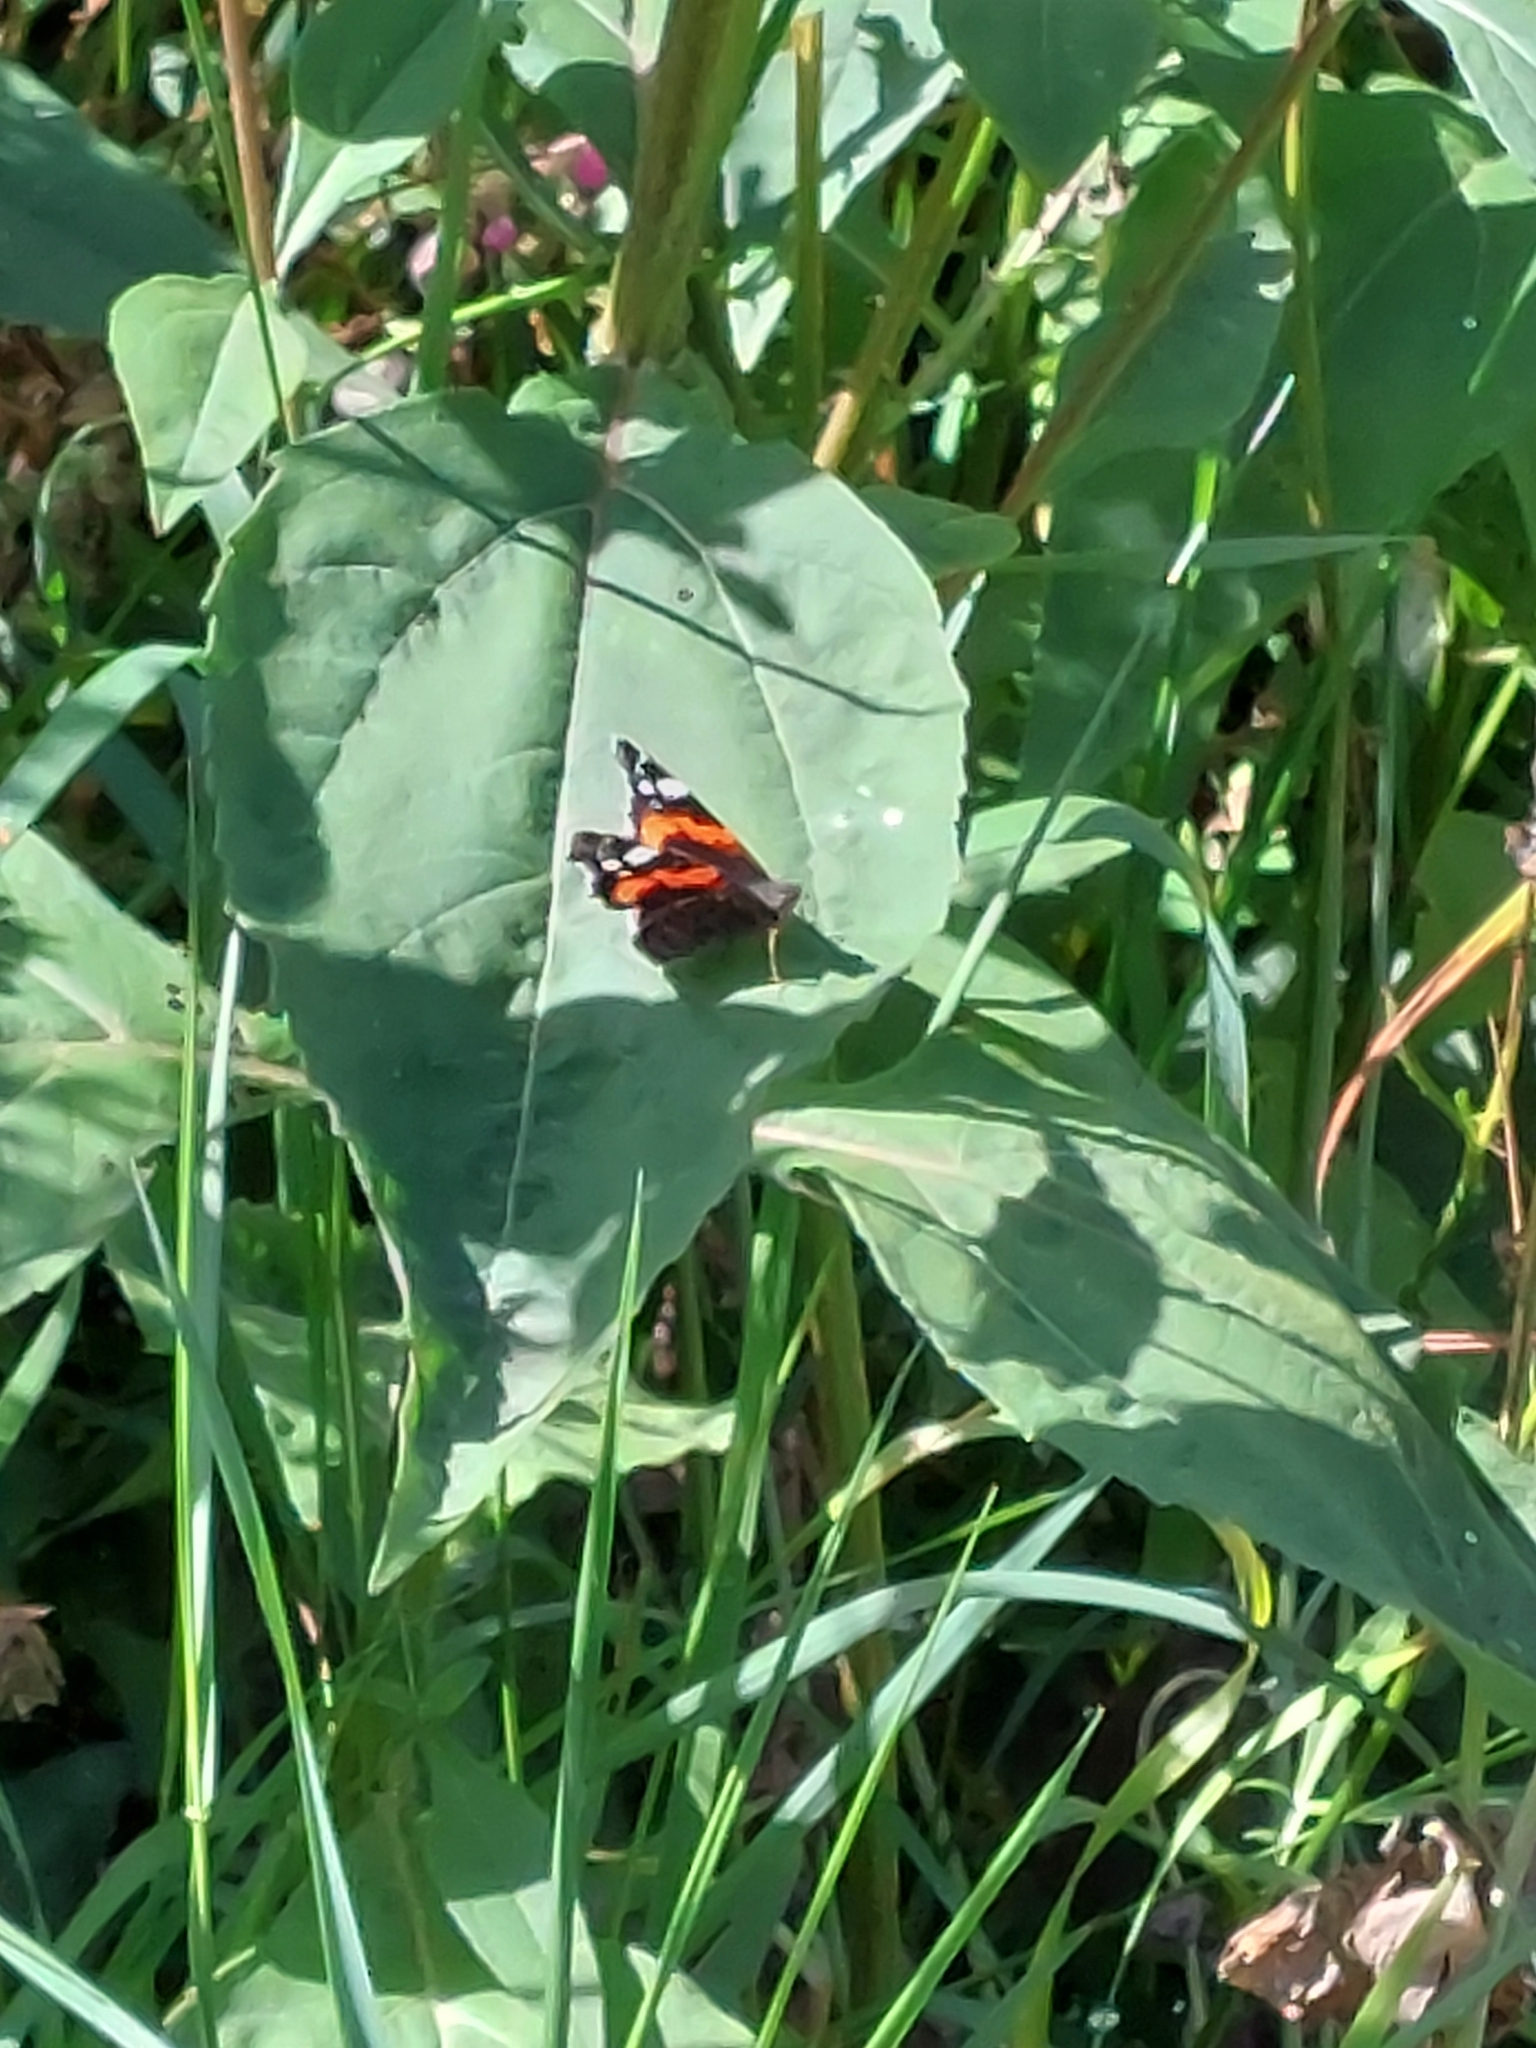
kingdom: Animalia
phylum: Arthropoda
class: Insecta
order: Lepidoptera
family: Nymphalidae
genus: Vanessa
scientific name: Vanessa atalanta
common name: Red admiral
